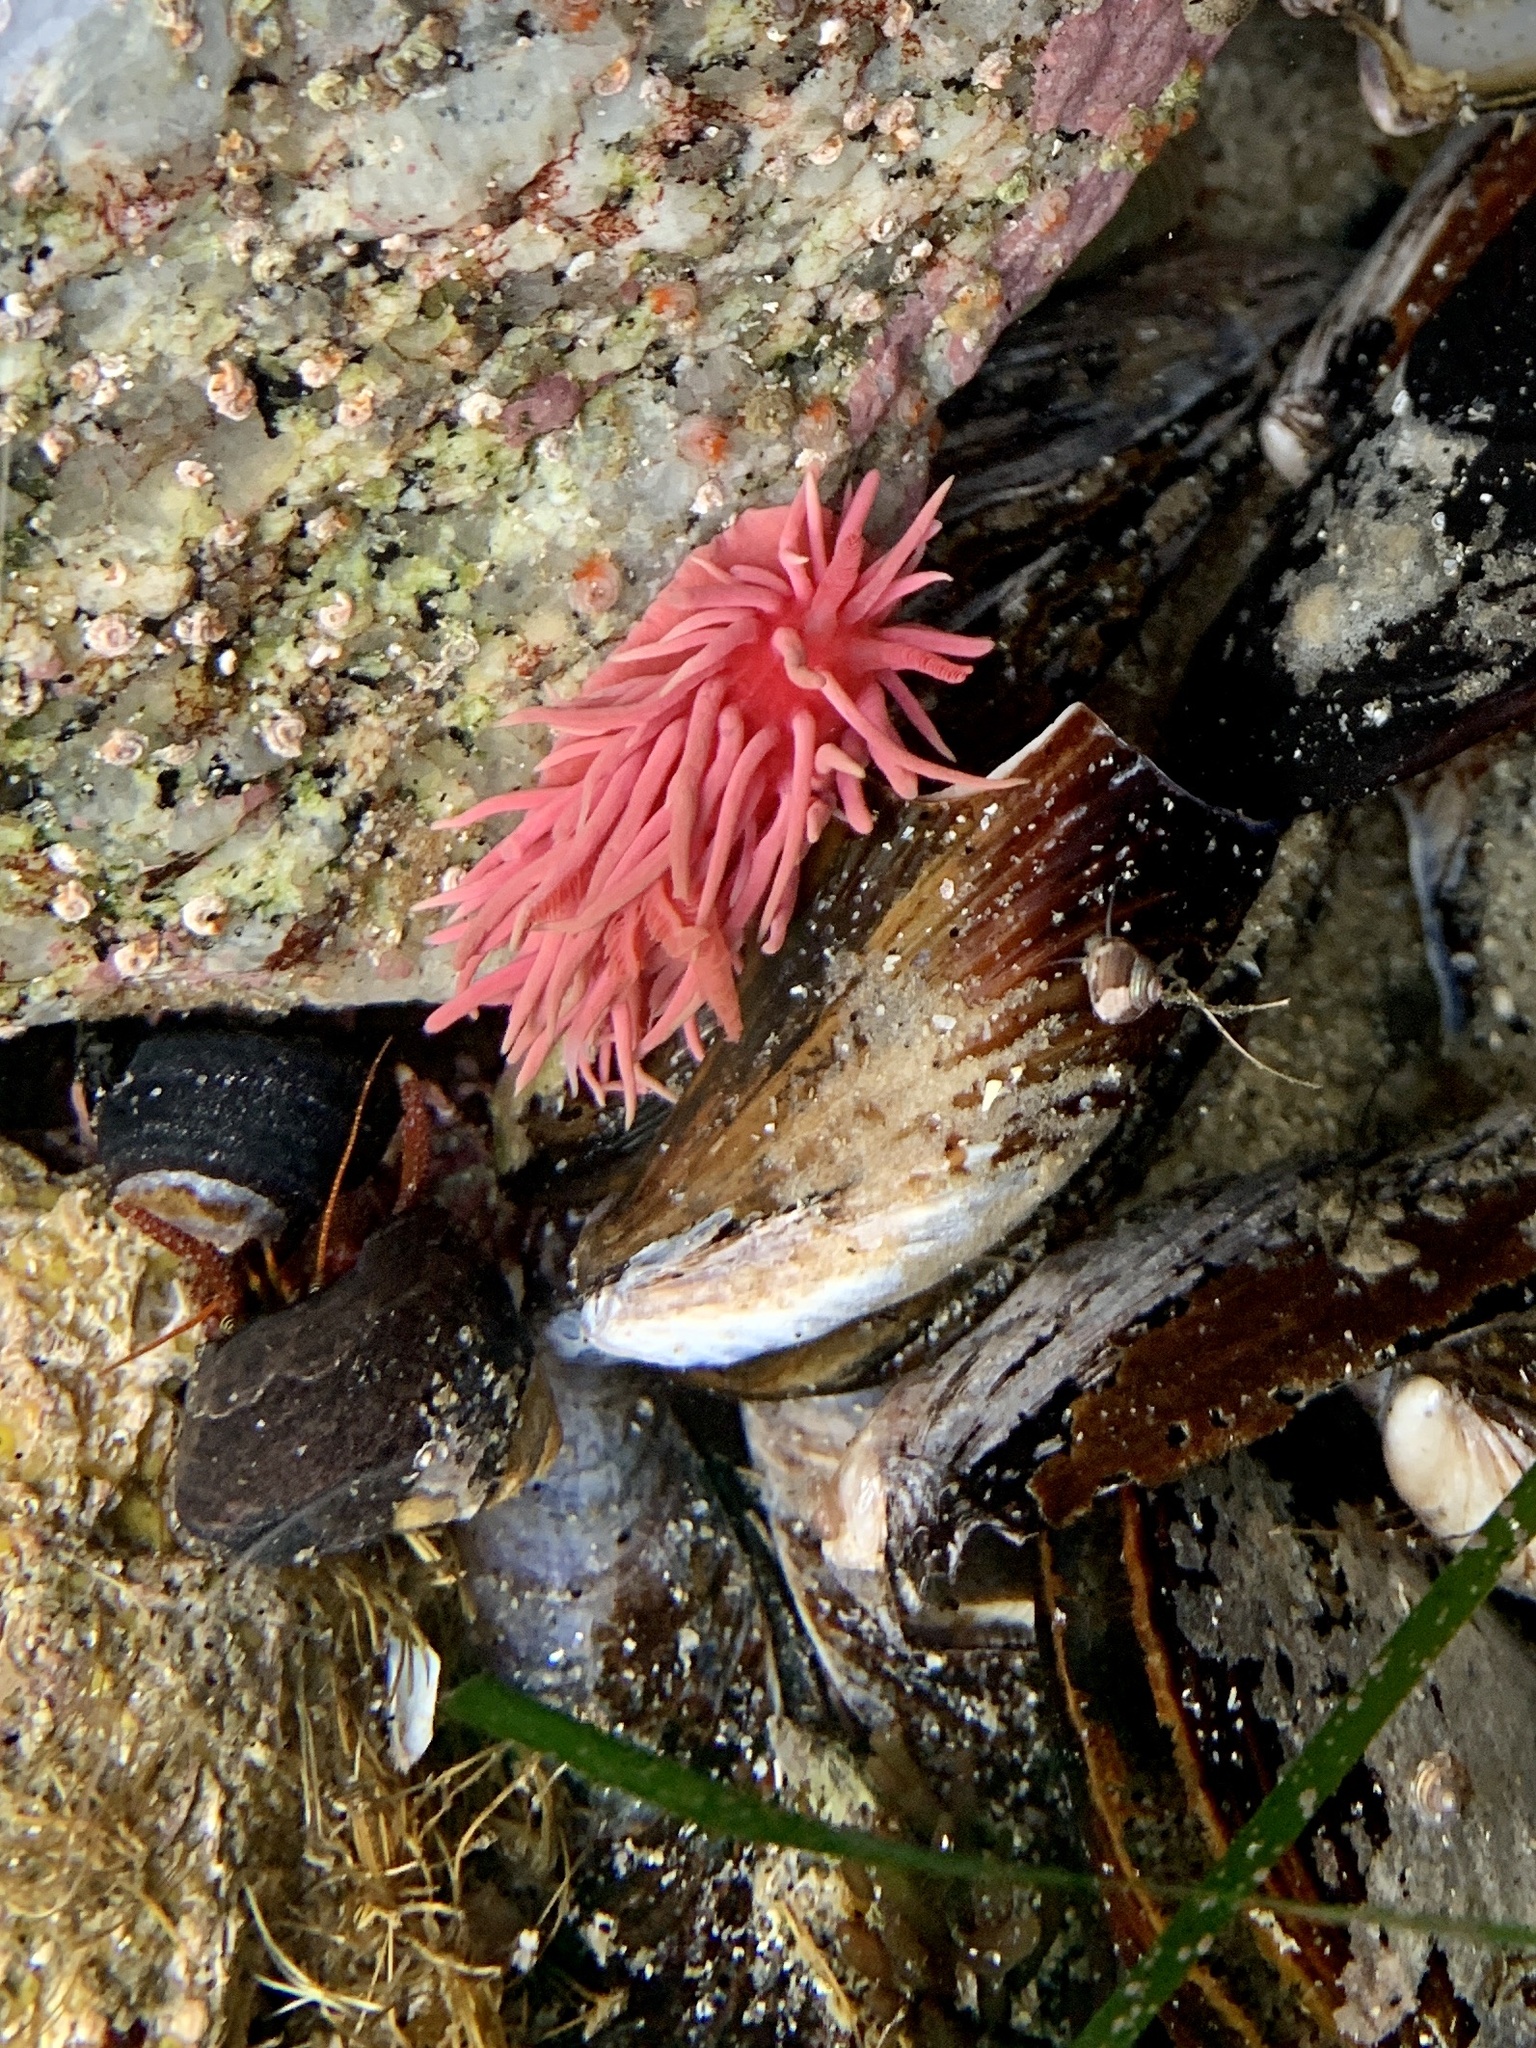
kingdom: Animalia
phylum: Mollusca
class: Gastropoda
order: Nudibranchia
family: Goniodorididae
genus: Okenia
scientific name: Okenia
